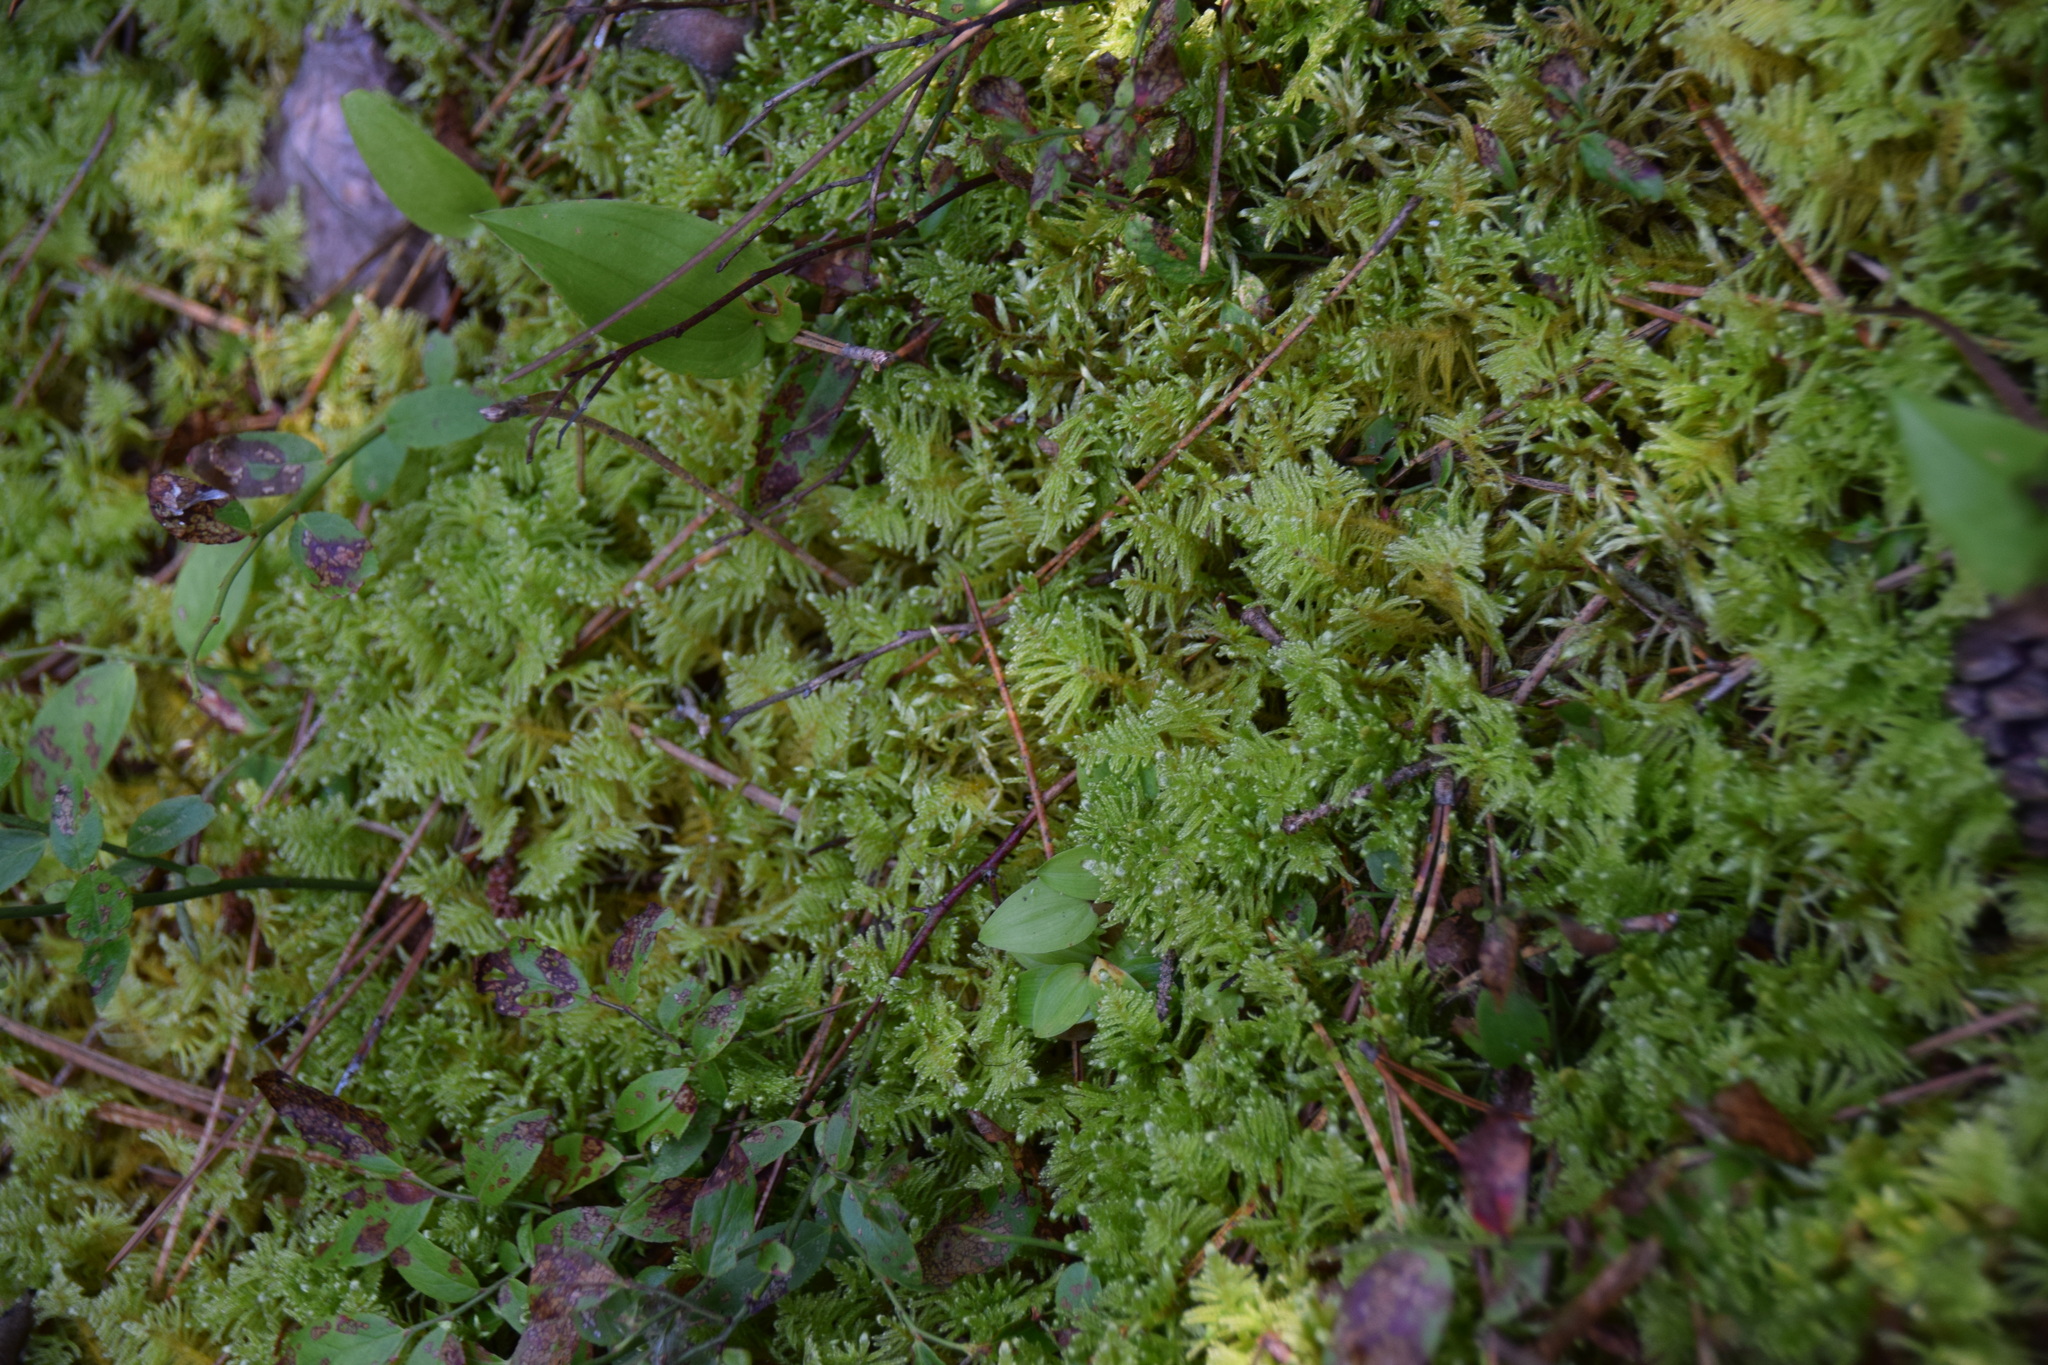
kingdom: Plantae
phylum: Bryophyta
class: Bryopsida
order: Hypnales
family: Pylaisiaceae
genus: Ptilium
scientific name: Ptilium crista-castrensis
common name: Knight's plume moss
